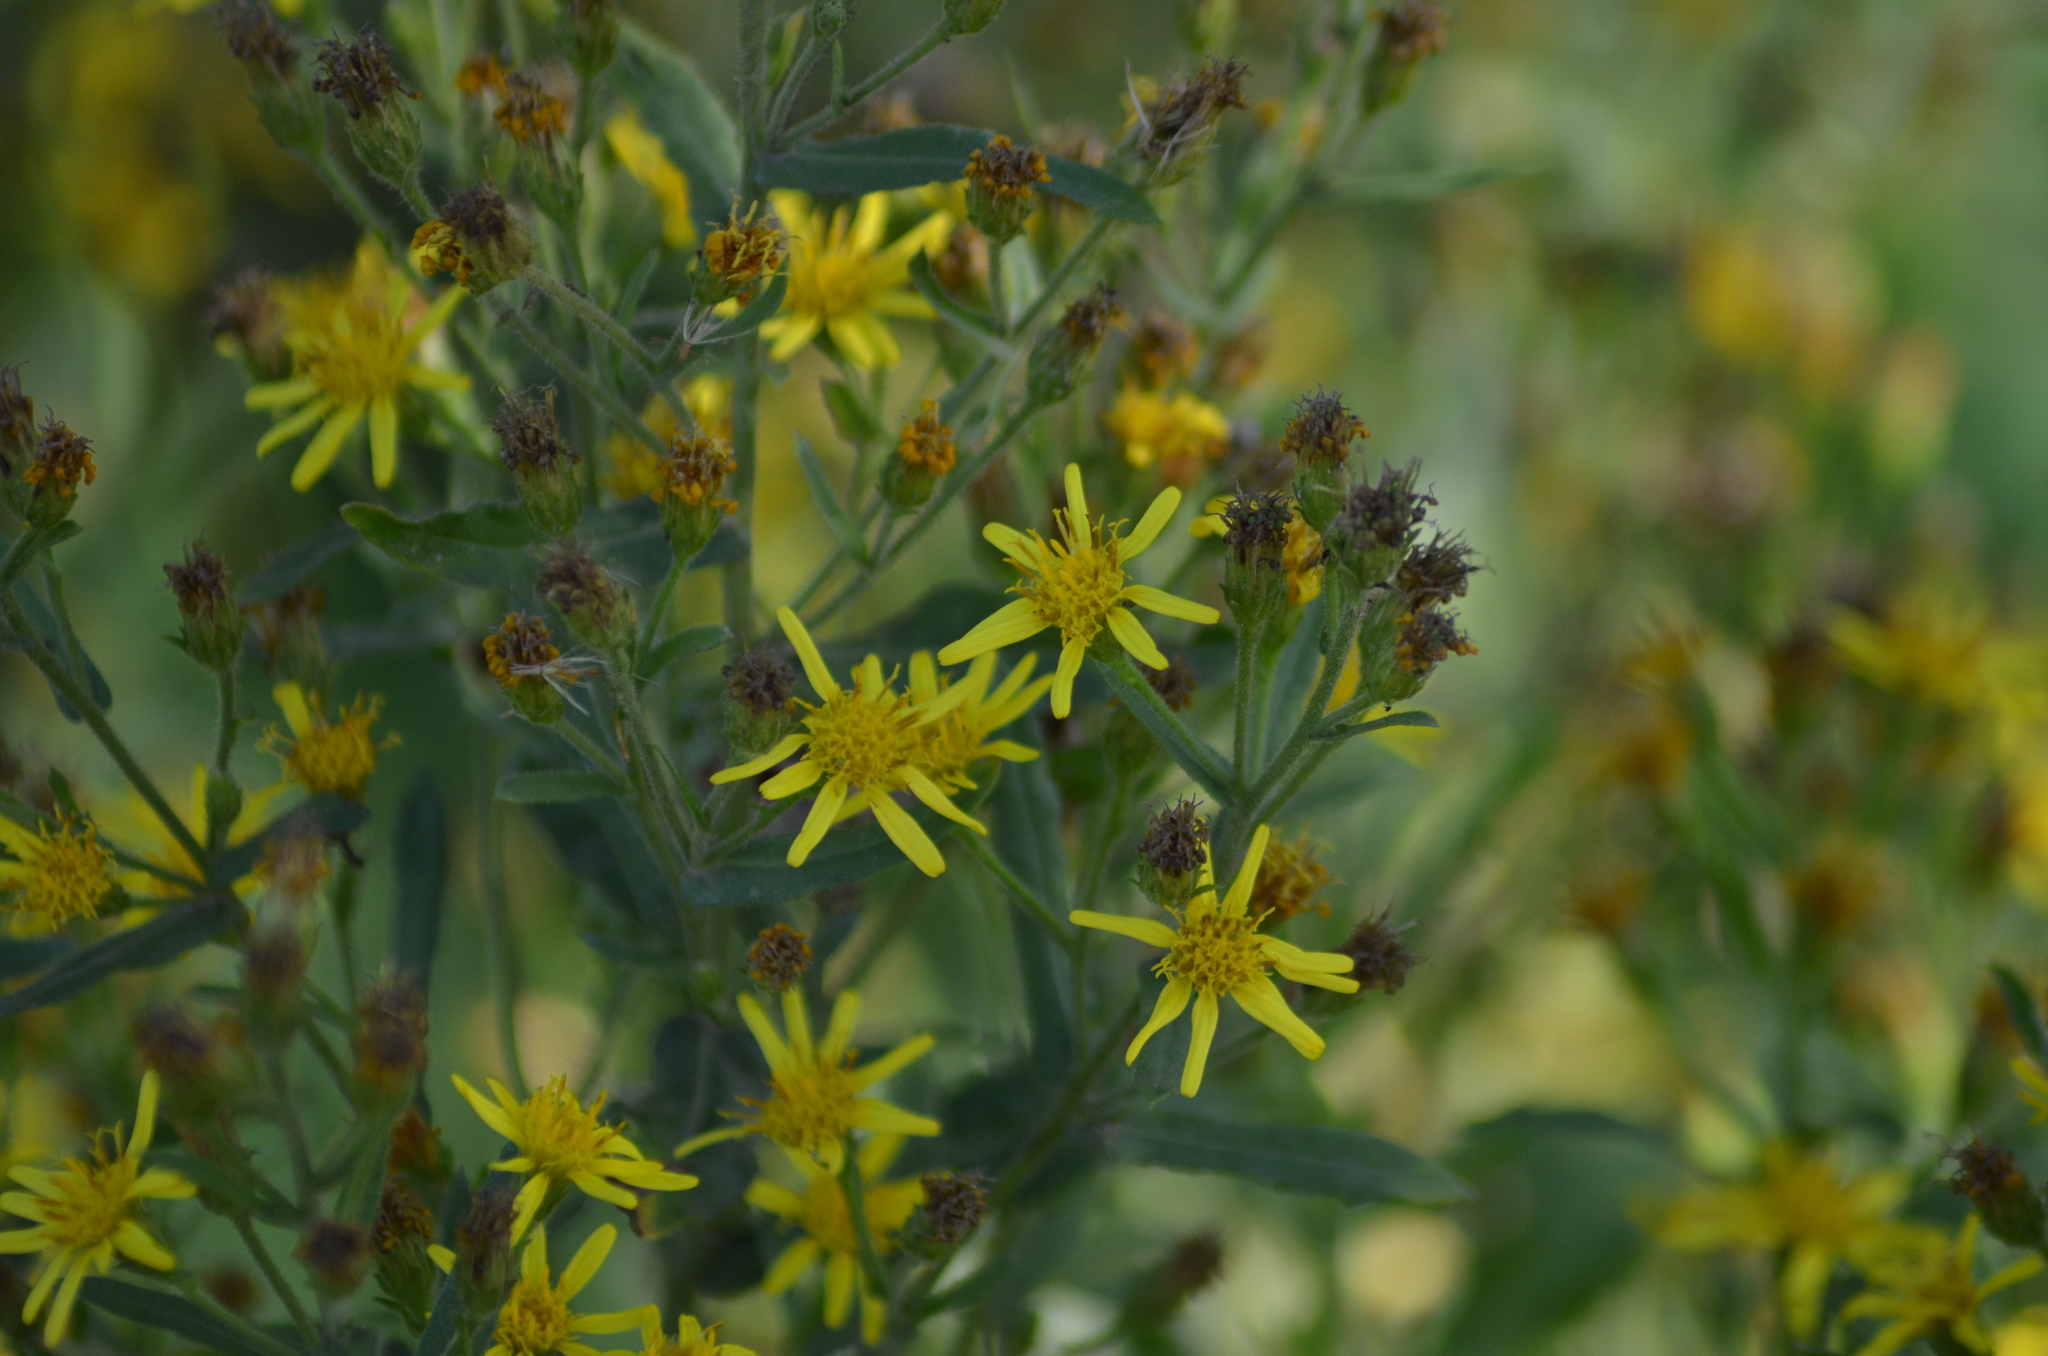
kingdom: Plantae
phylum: Tracheophyta
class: Magnoliopsida
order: Asterales
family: Asteraceae
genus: Dittrichia
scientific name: Dittrichia viscosa
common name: Woody fleabane
